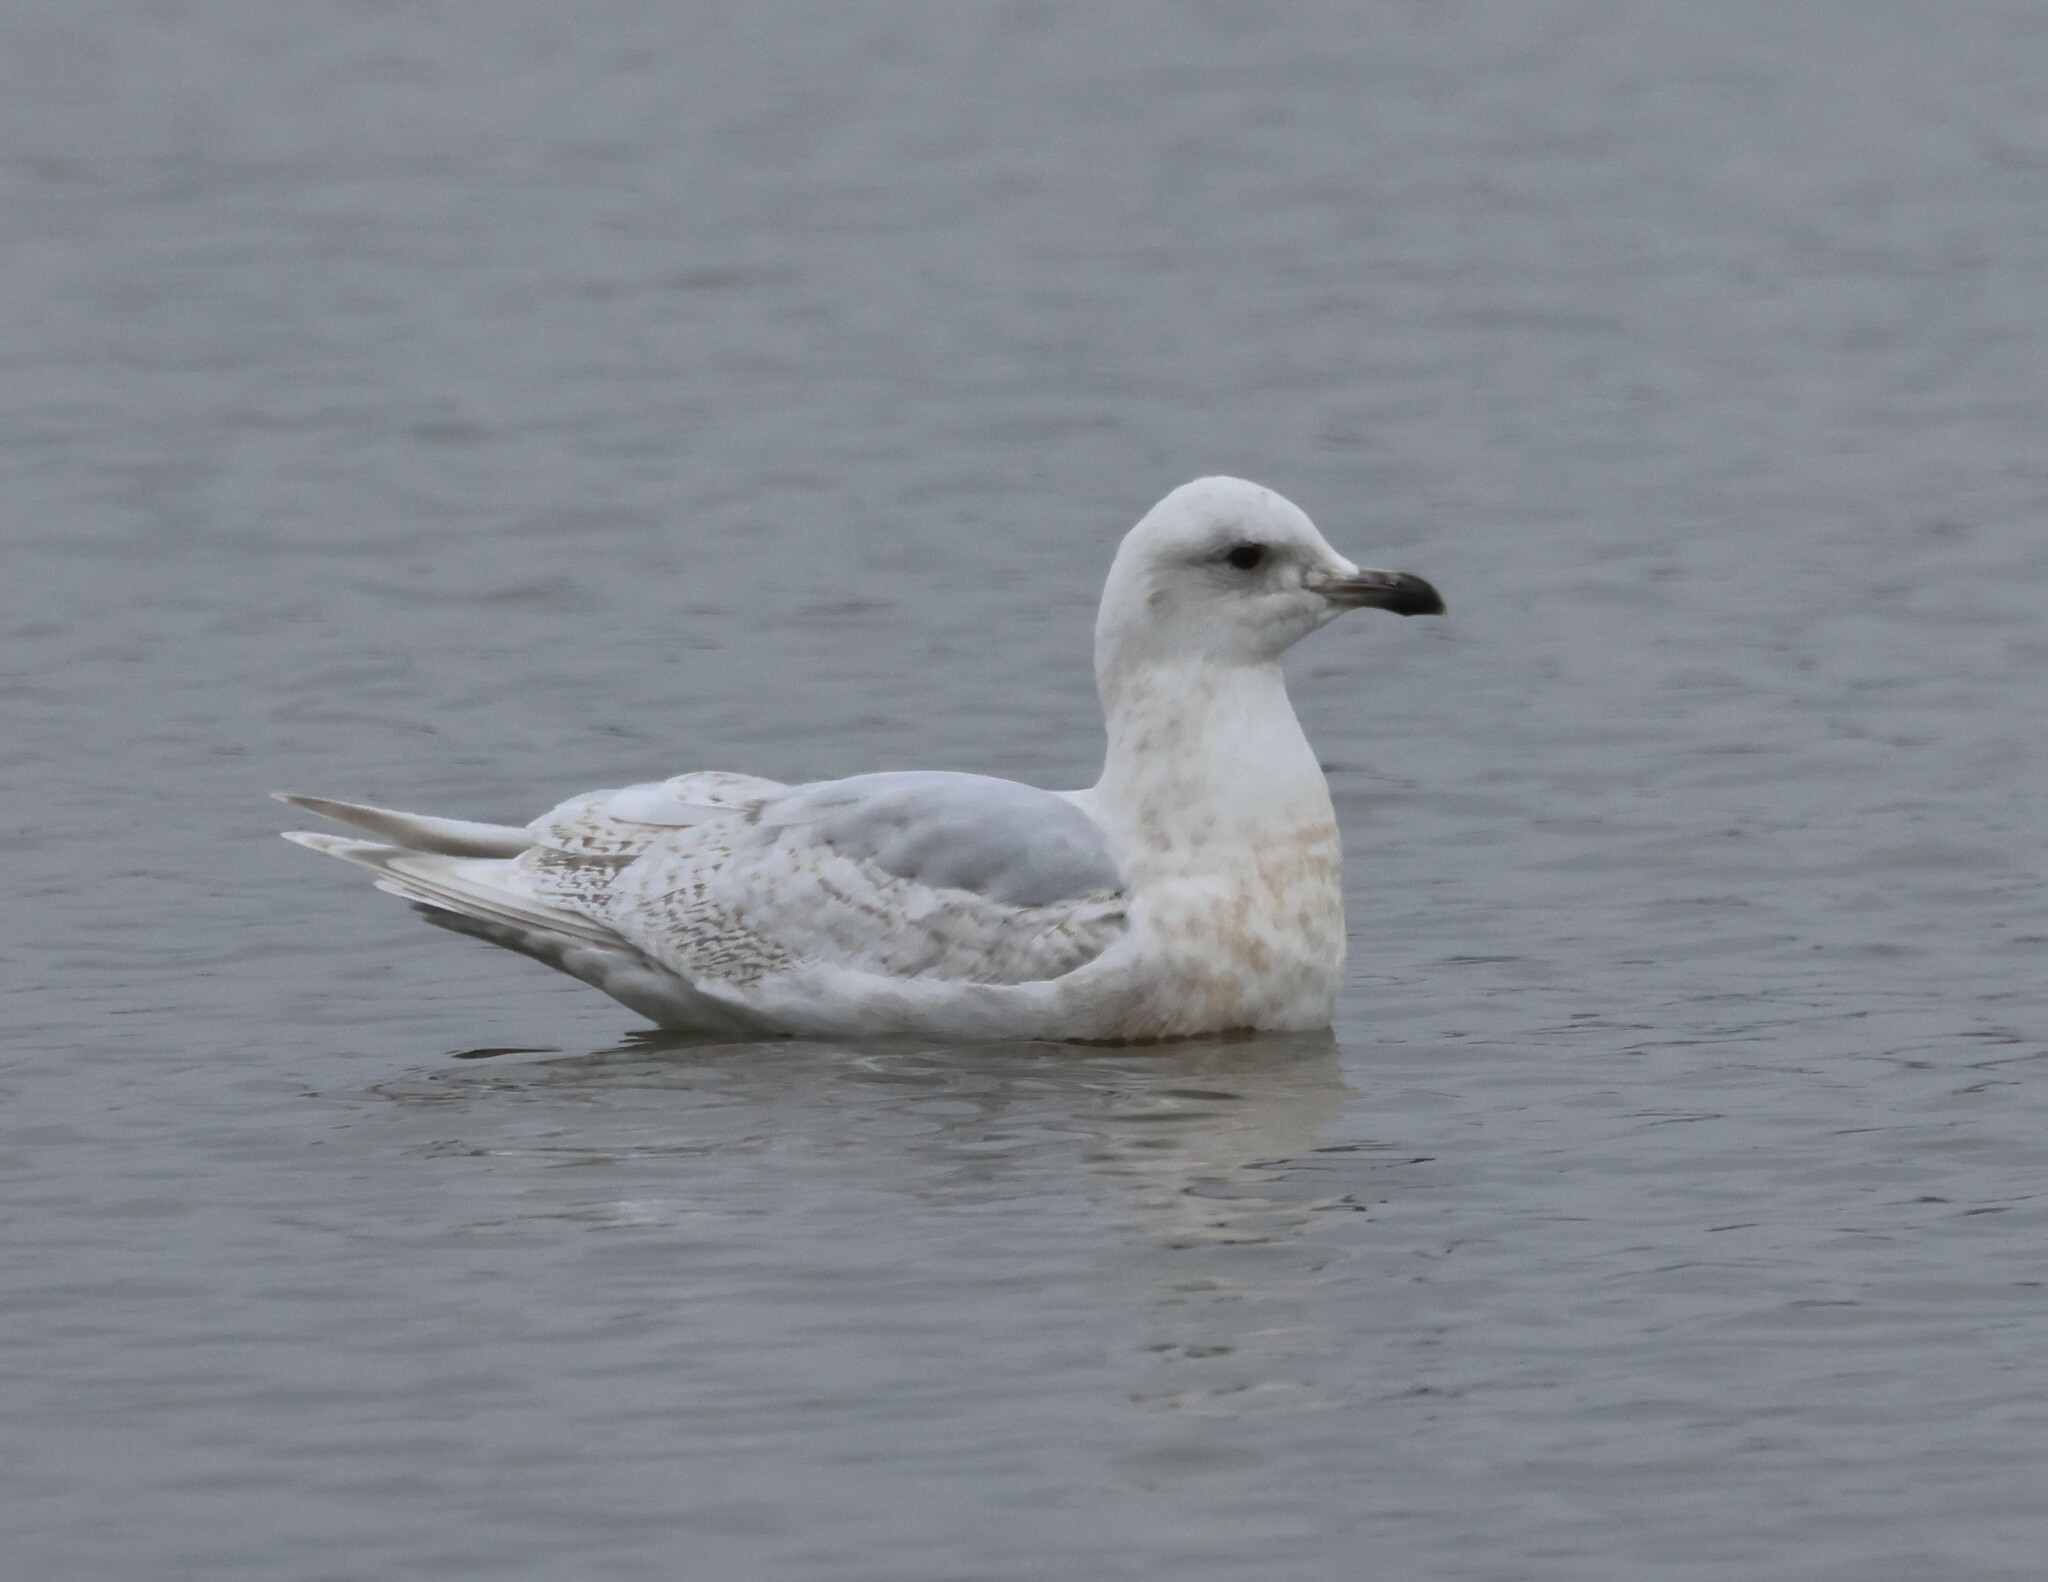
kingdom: Animalia
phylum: Chordata
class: Aves
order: Charadriiformes
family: Laridae
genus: Larus
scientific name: Larus glaucoides
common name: Iceland gull
